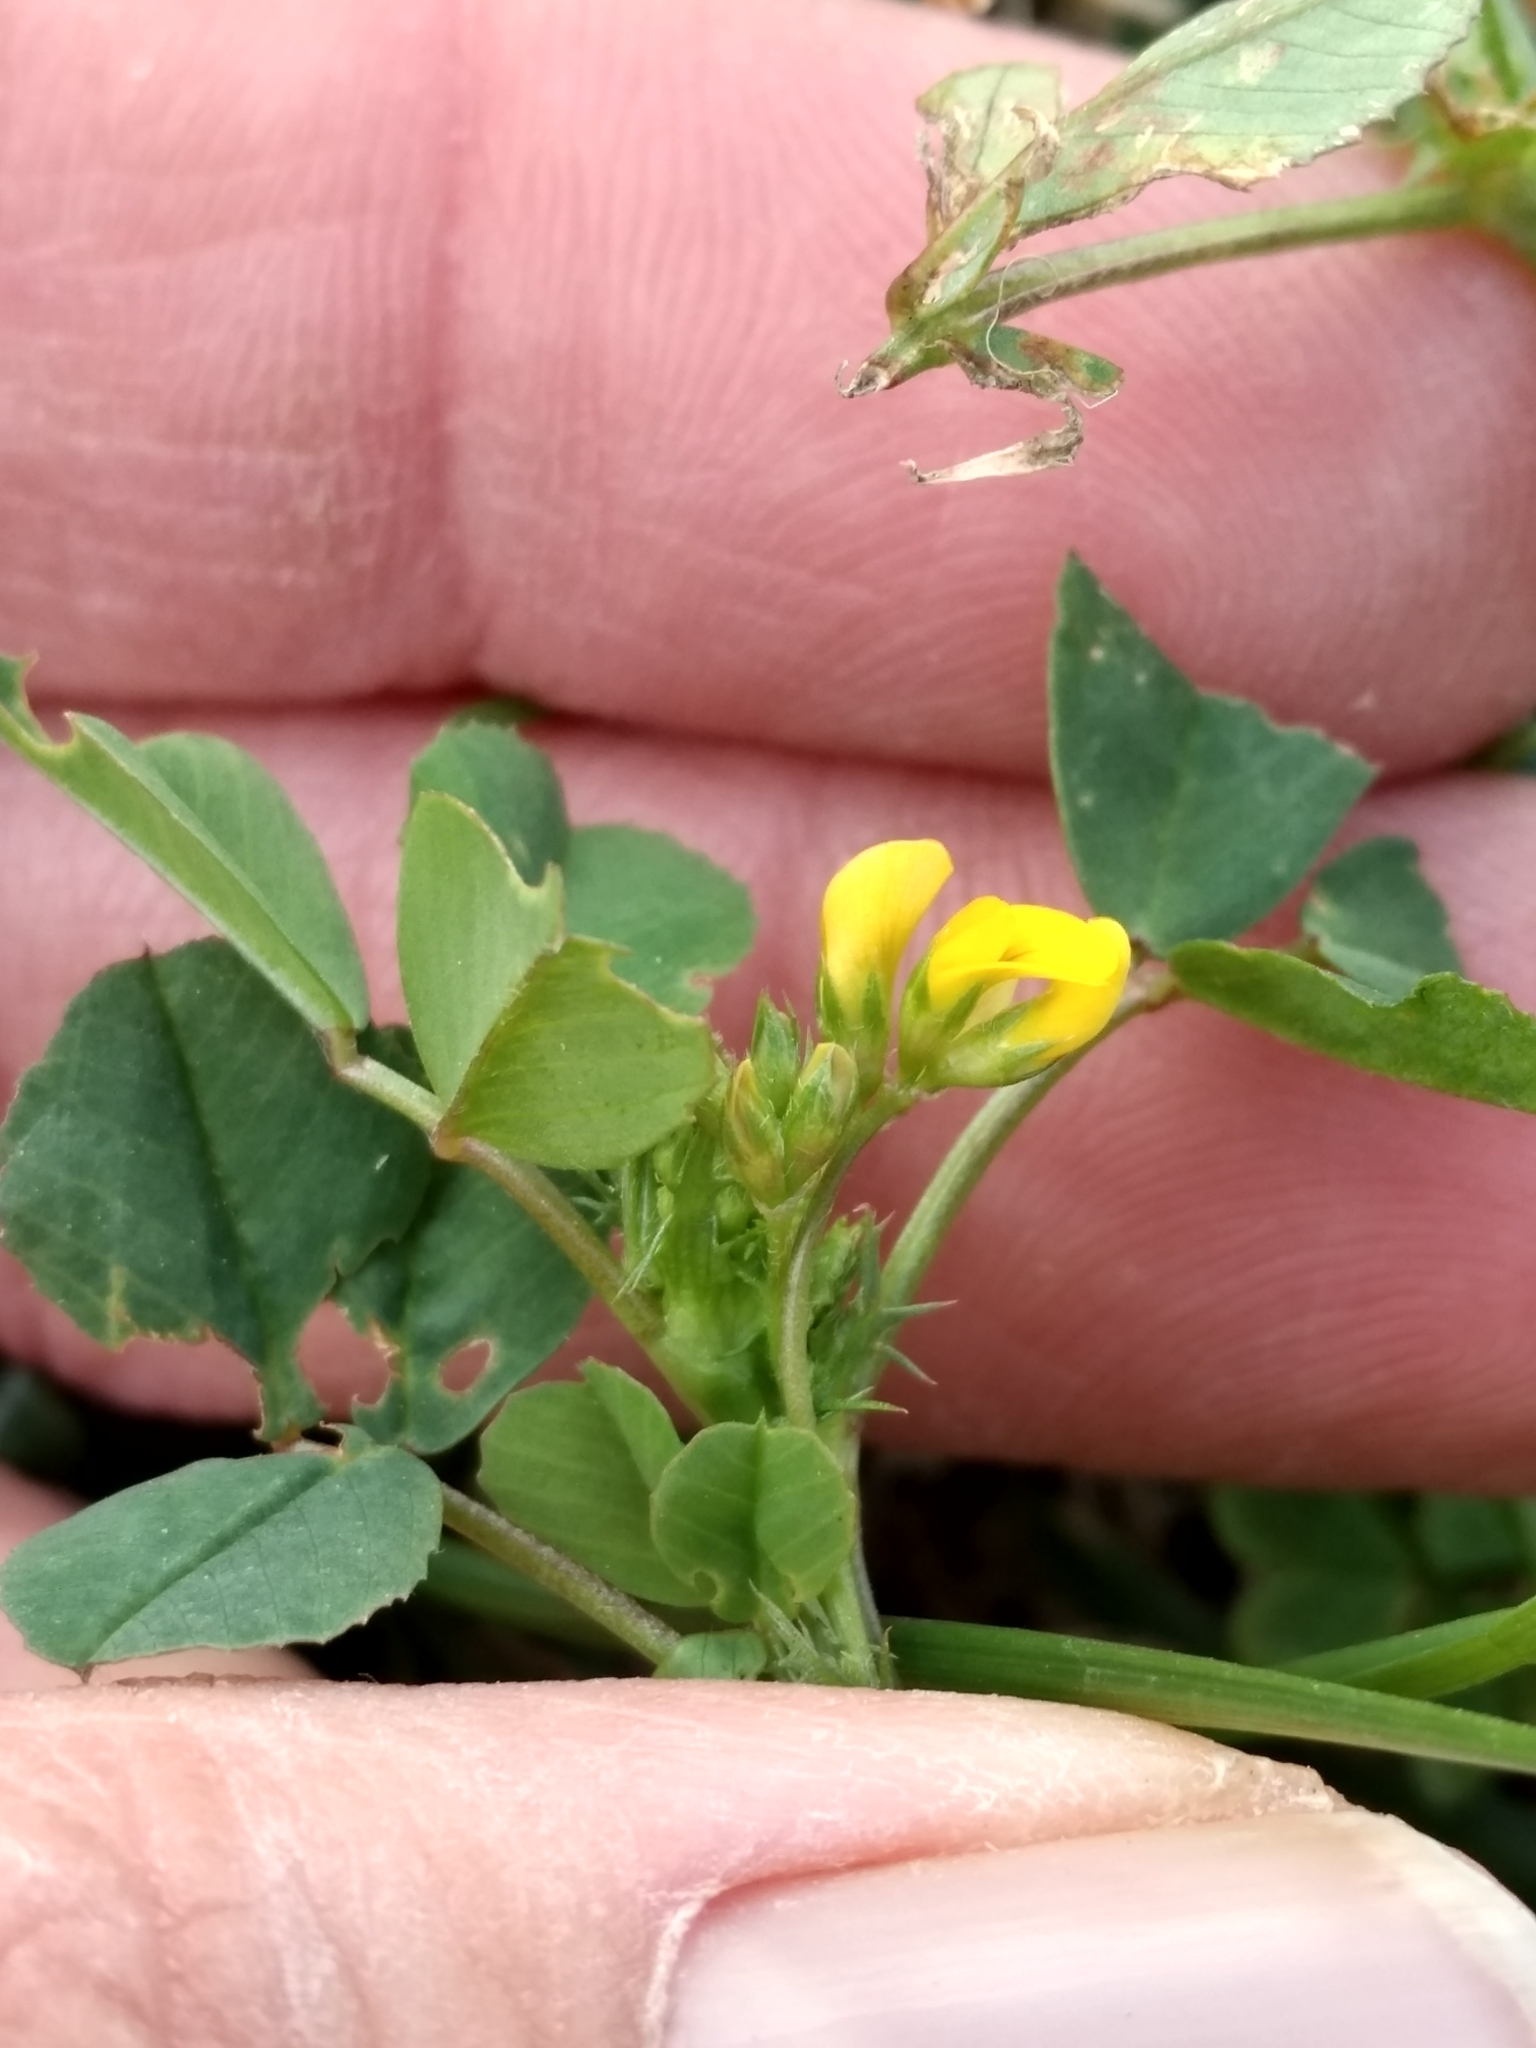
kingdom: Plantae
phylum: Tracheophyta
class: Magnoliopsida
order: Fabales
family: Fabaceae
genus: Medicago
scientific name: Medicago polymorpha
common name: Burclover
